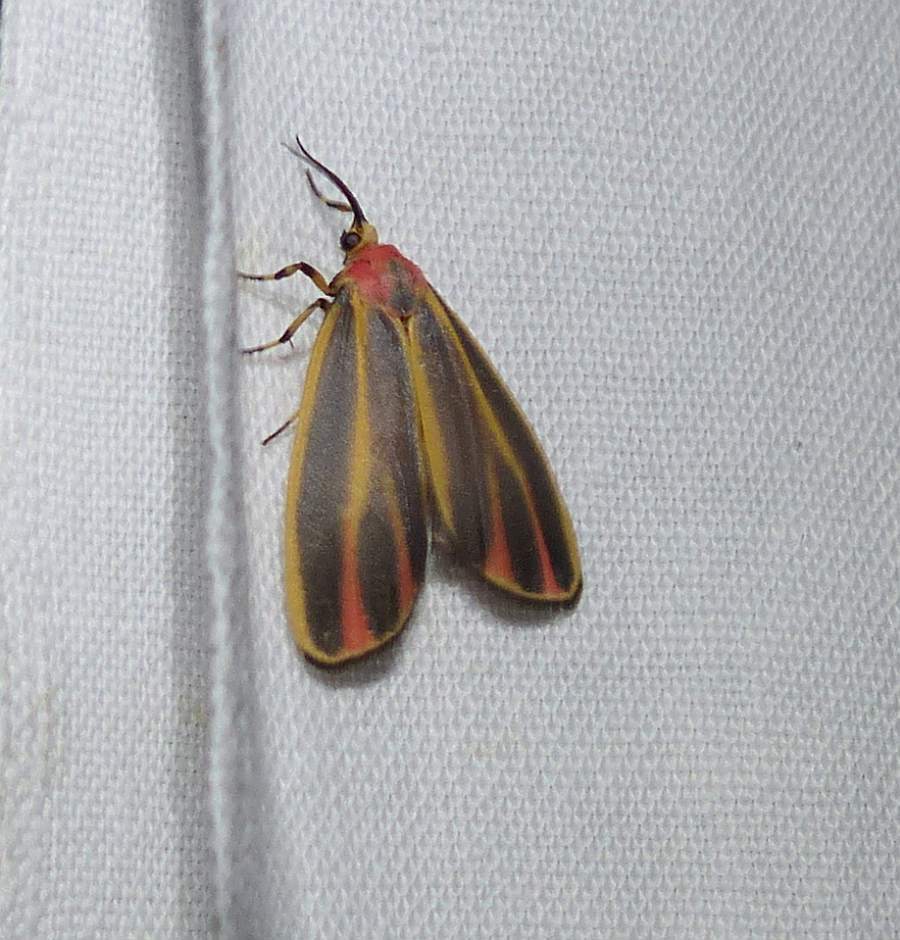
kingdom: Animalia
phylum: Arthropoda
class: Insecta
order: Lepidoptera
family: Erebidae
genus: Hypoprepia
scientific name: Hypoprepia fucosa
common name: Painted lichen moth
